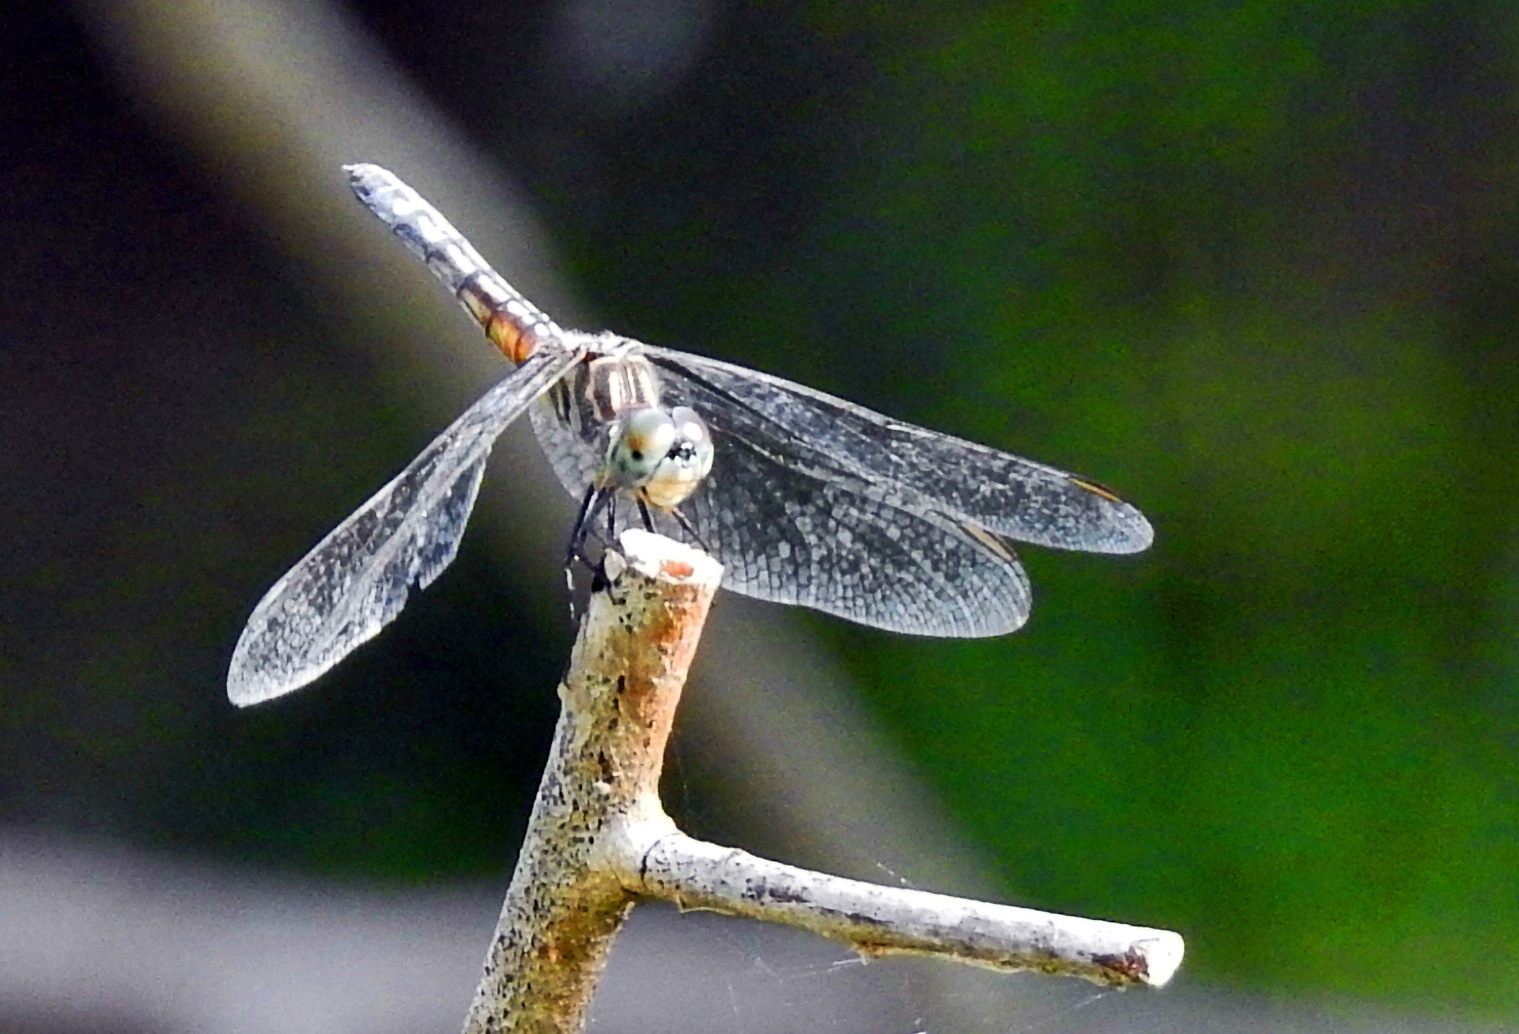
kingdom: Animalia
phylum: Arthropoda
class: Insecta
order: Odonata
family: Libellulidae
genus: Pachydiplax
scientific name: Pachydiplax longipennis
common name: Blue dasher
